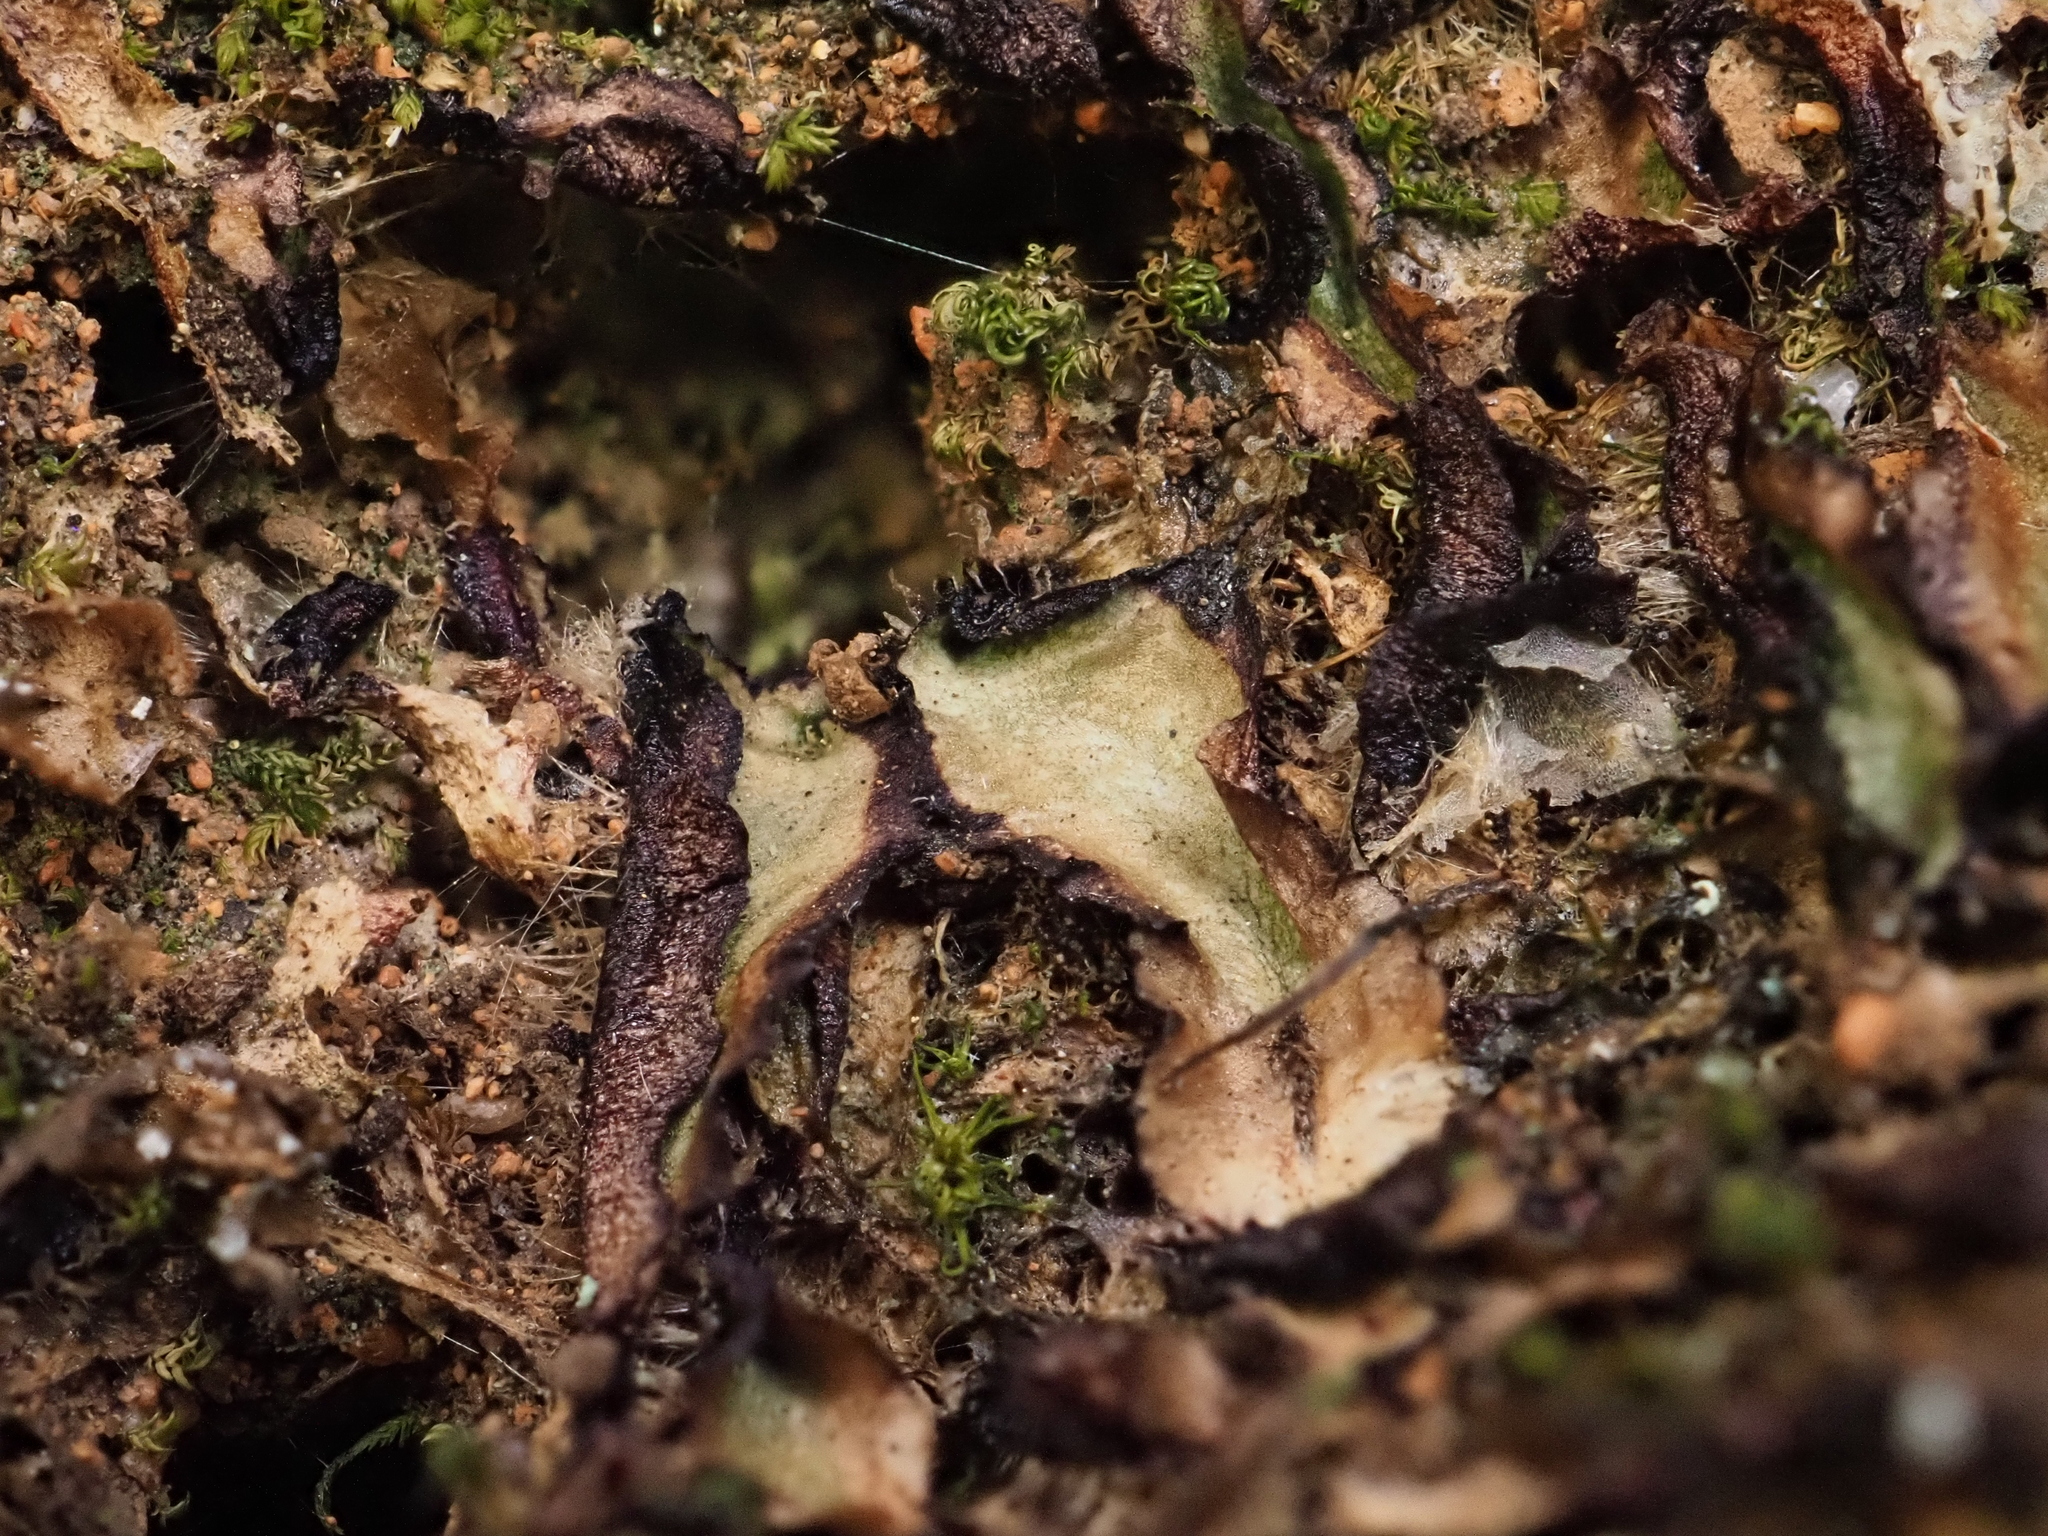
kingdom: Plantae
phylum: Marchantiophyta
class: Marchantiopsida
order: Marchantiales
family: Aytoniaceae
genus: Asterella
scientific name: Asterella drummondii
